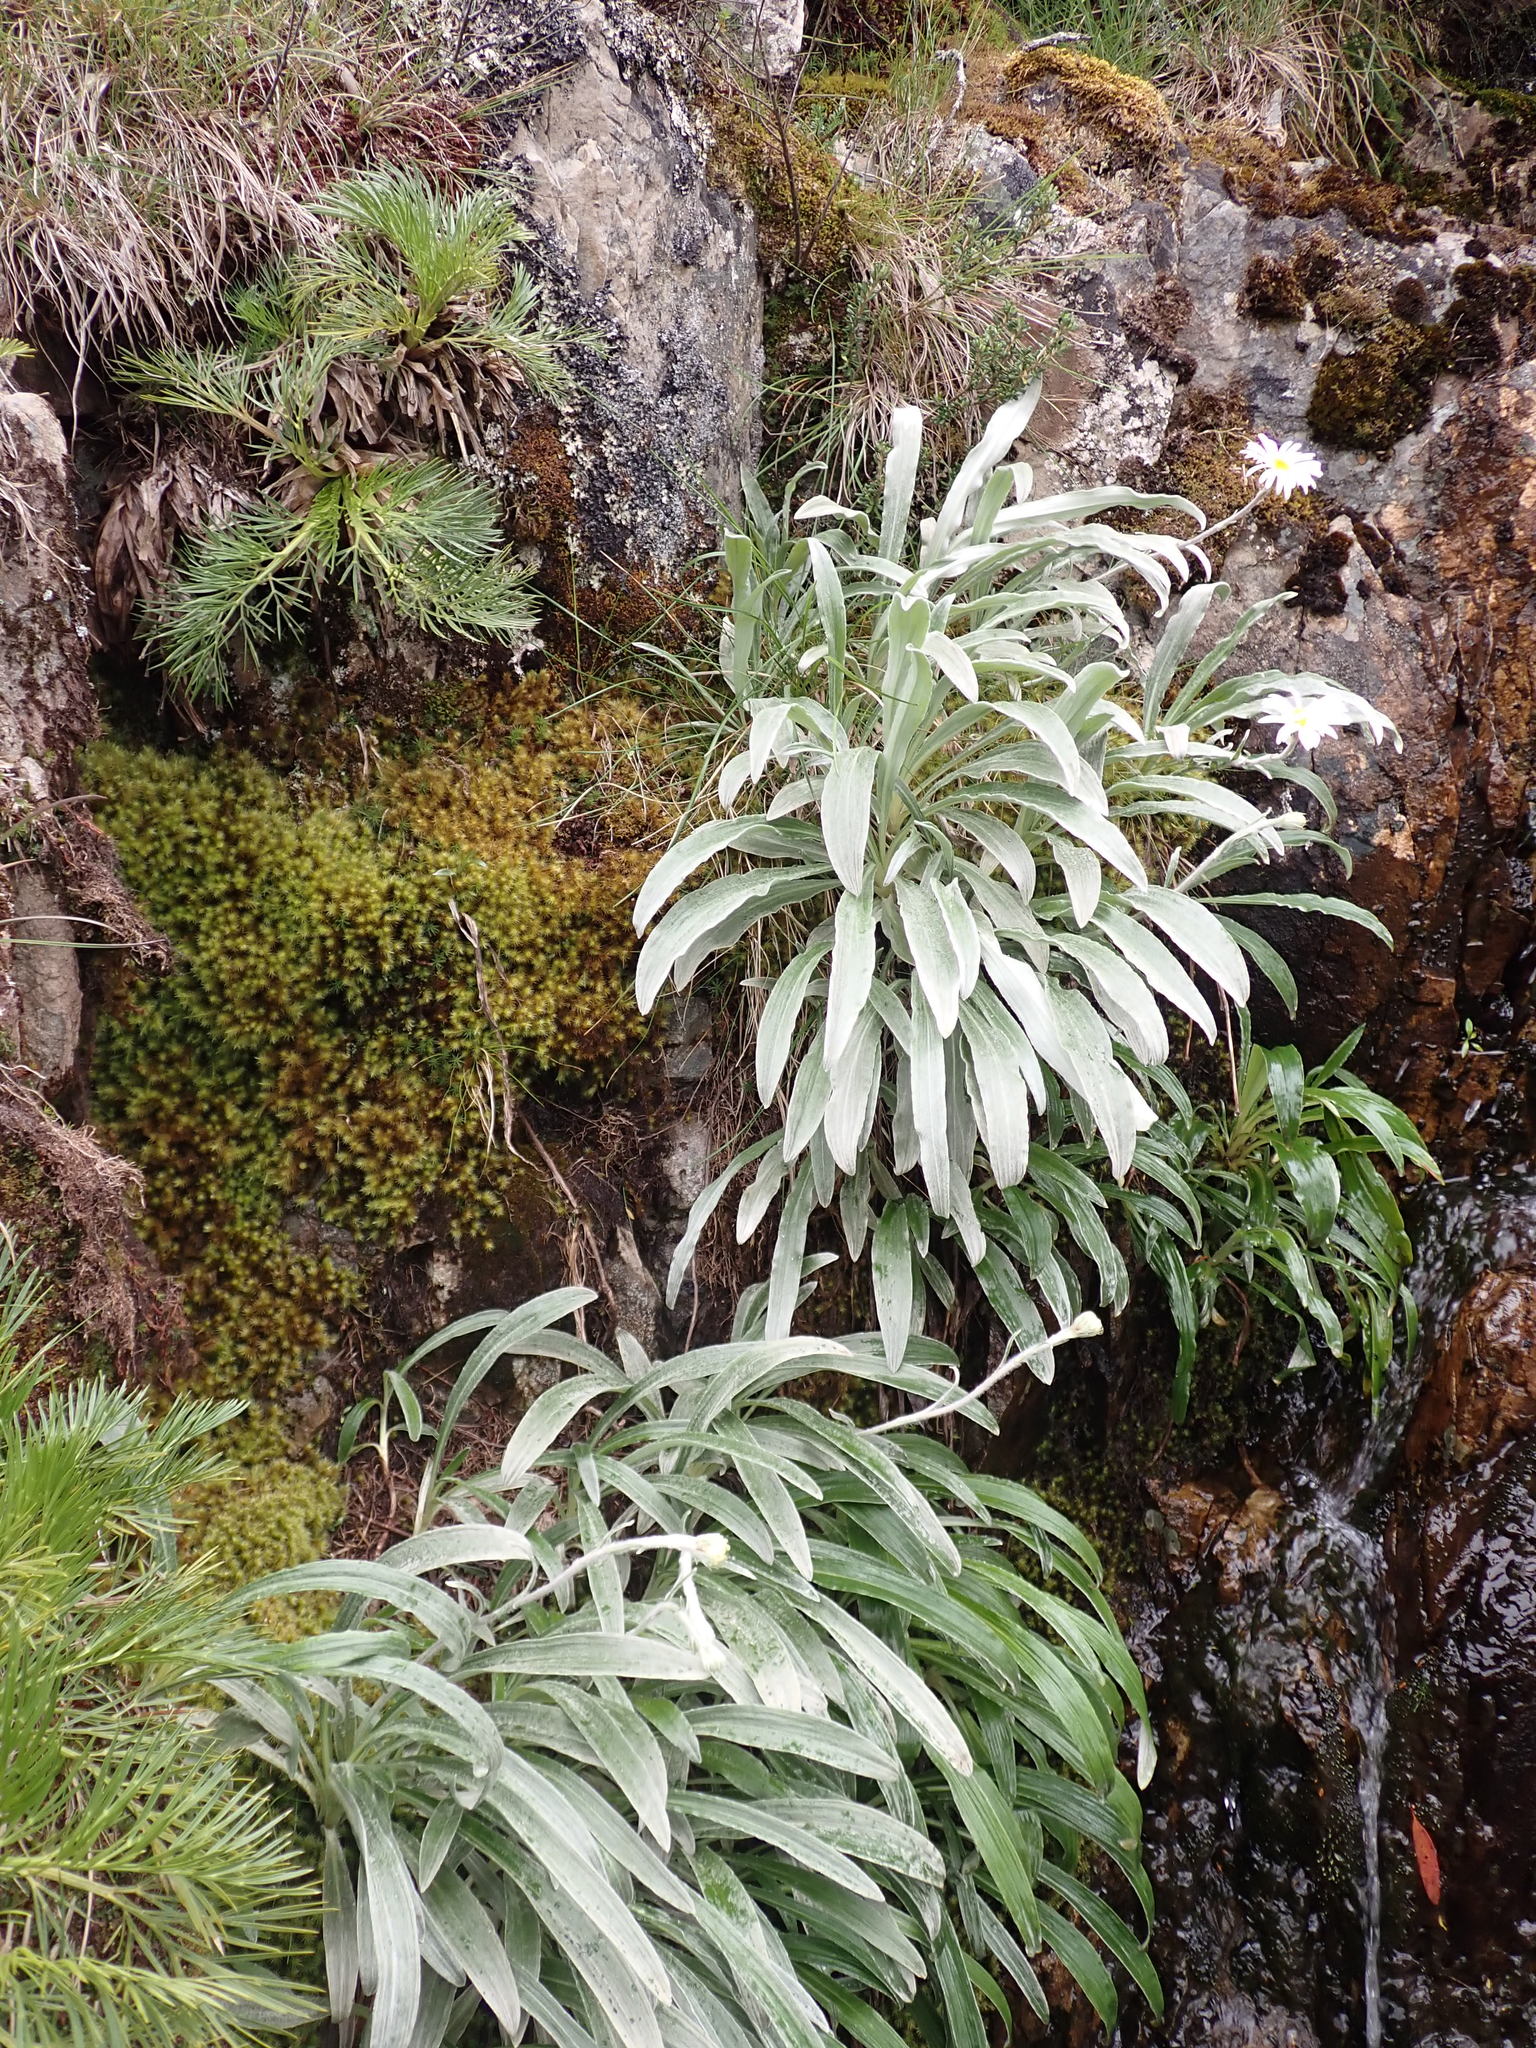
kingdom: Plantae
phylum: Tracheophyta
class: Magnoliopsida
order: Asterales
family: Asteraceae
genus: Celmisia
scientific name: Celmisia sericophylla
